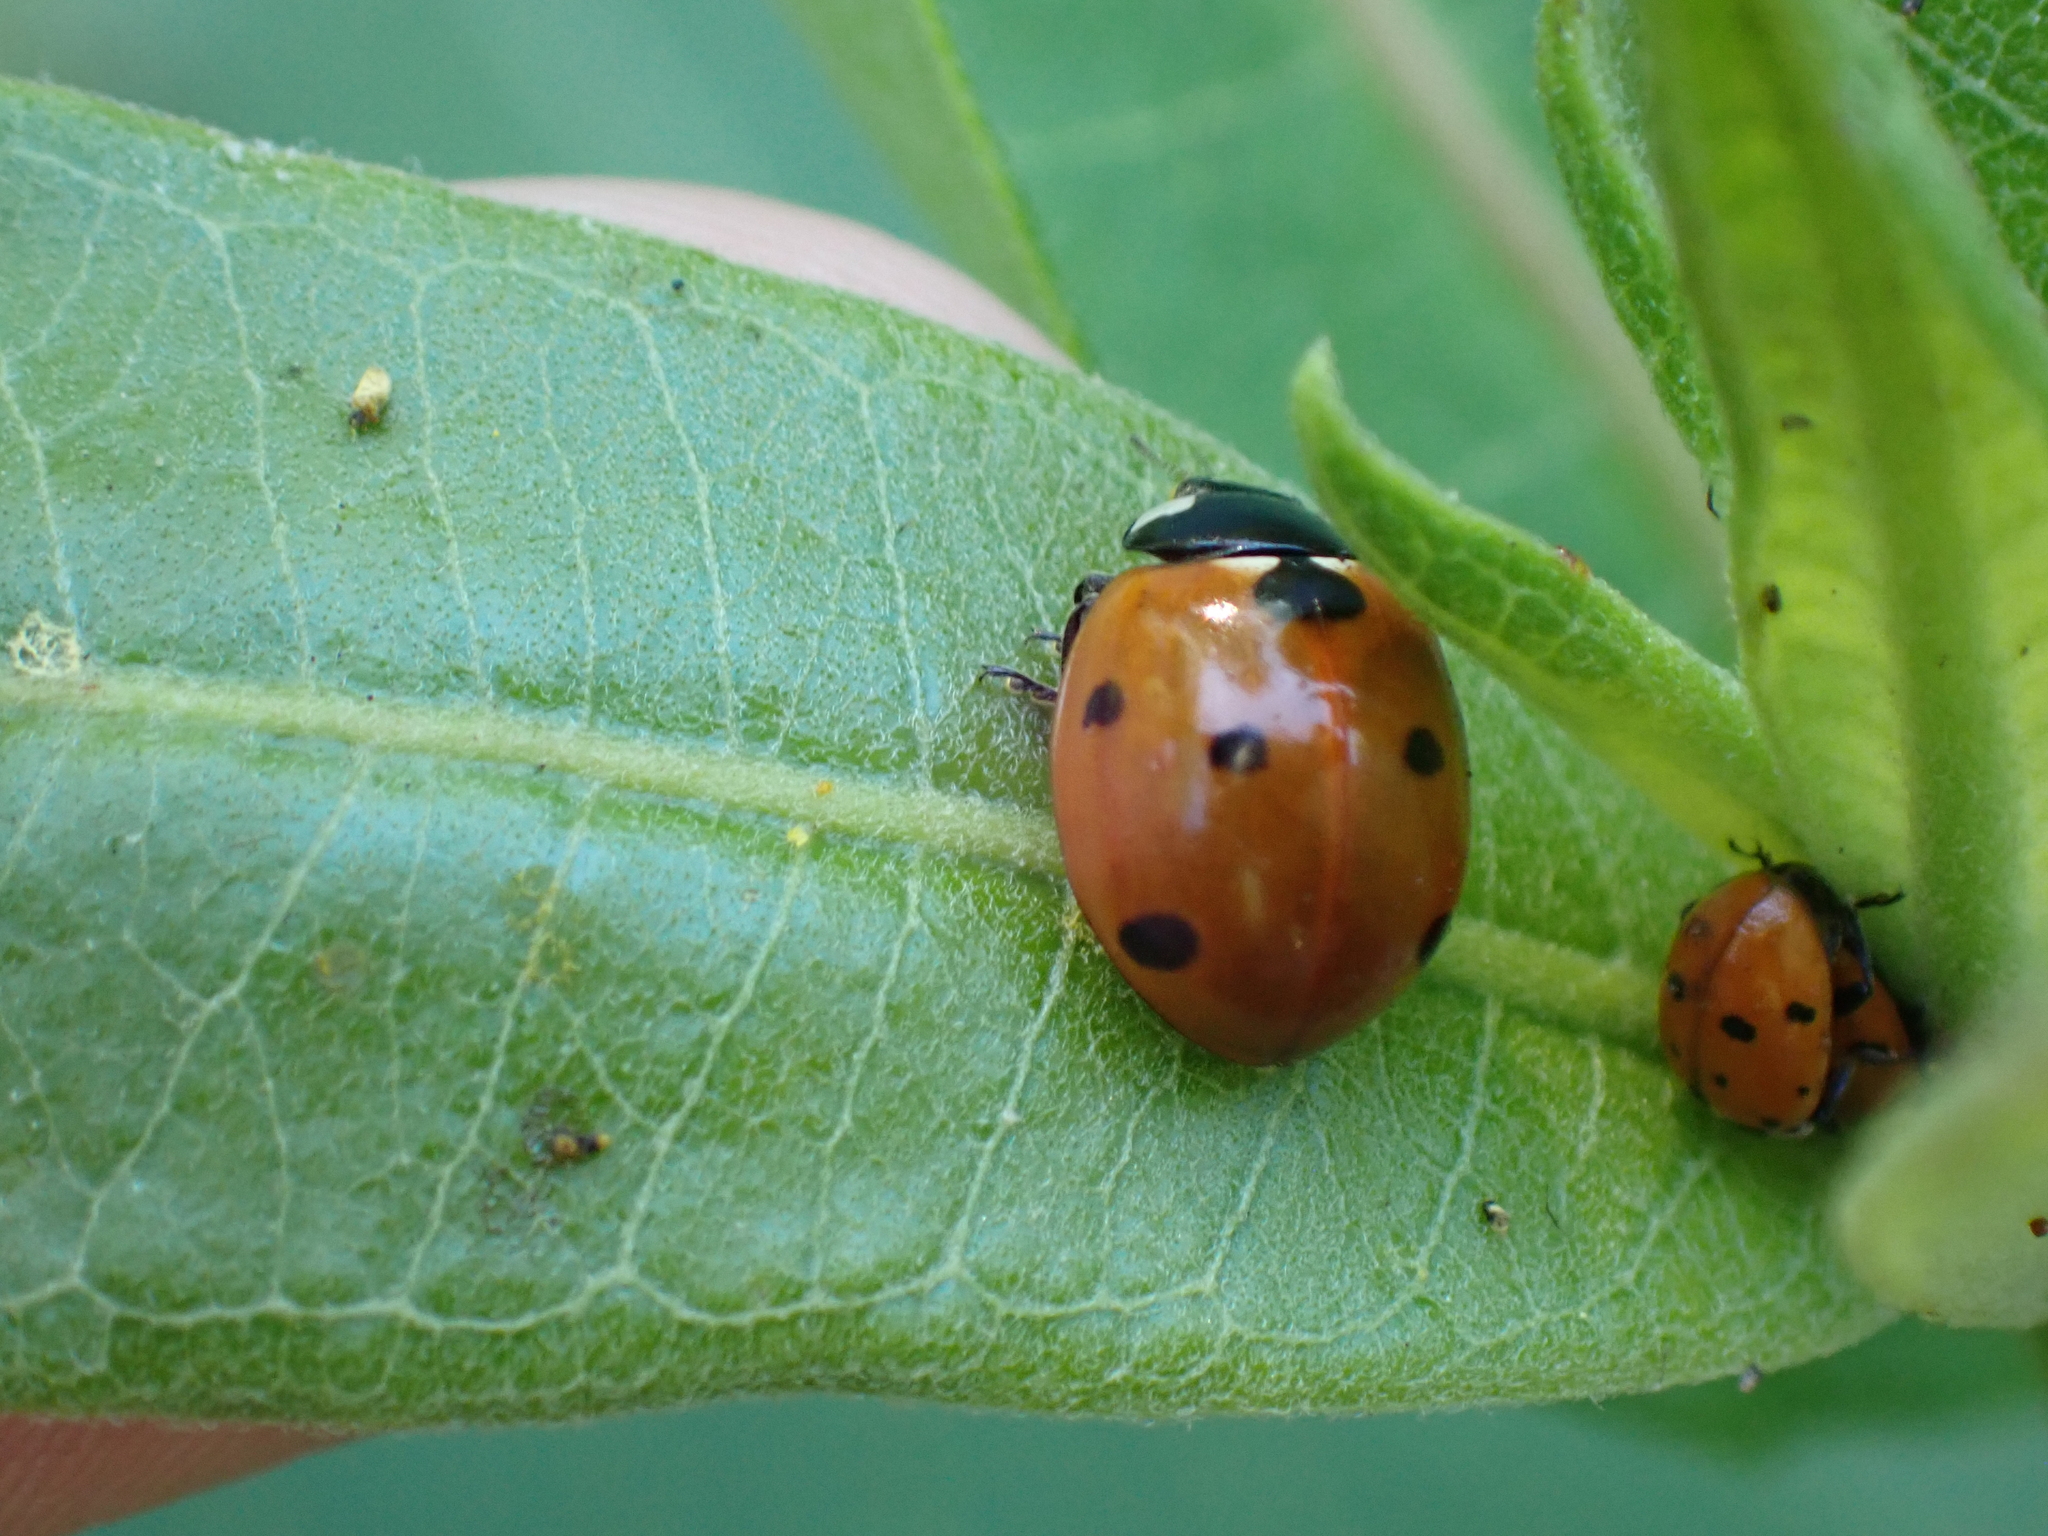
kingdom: Animalia
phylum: Arthropoda
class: Insecta
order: Coleoptera
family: Coccinellidae
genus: Coccinella
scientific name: Coccinella septempunctata
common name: Sevenspotted lady beetle
